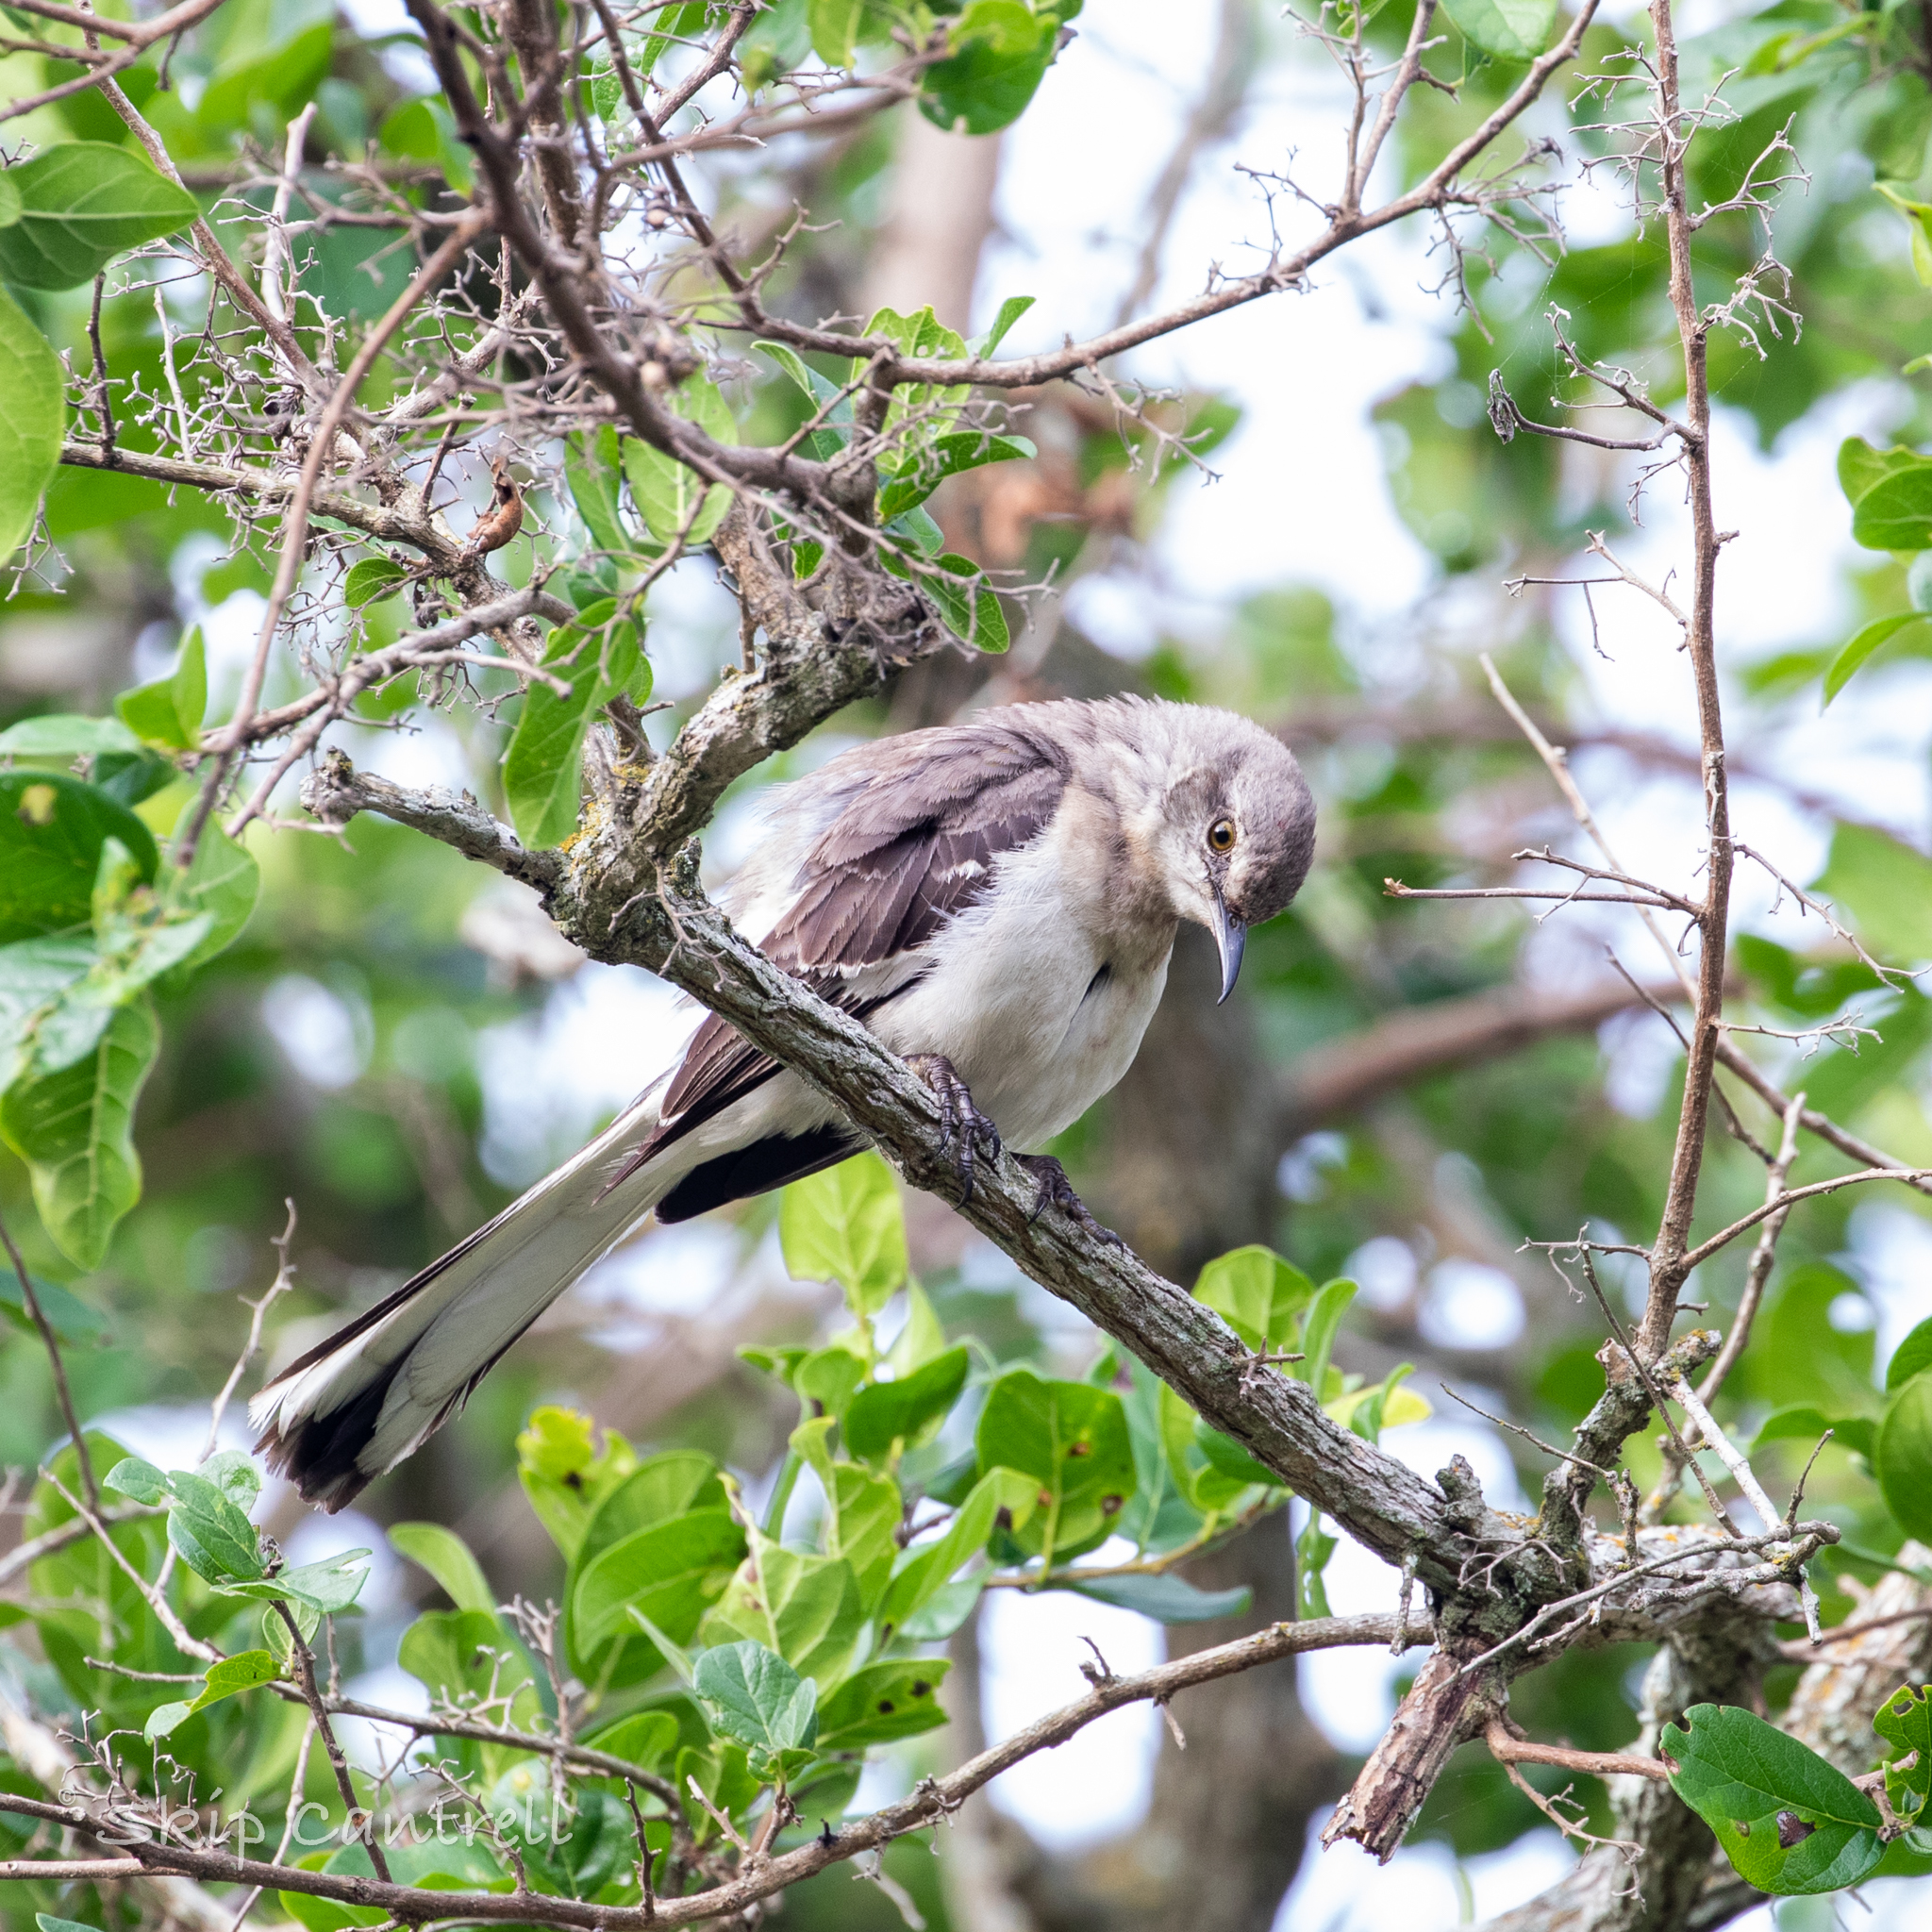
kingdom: Animalia
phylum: Chordata
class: Aves
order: Passeriformes
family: Mimidae
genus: Mimus
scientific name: Mimus polyglottos
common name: Northern mockingbird
